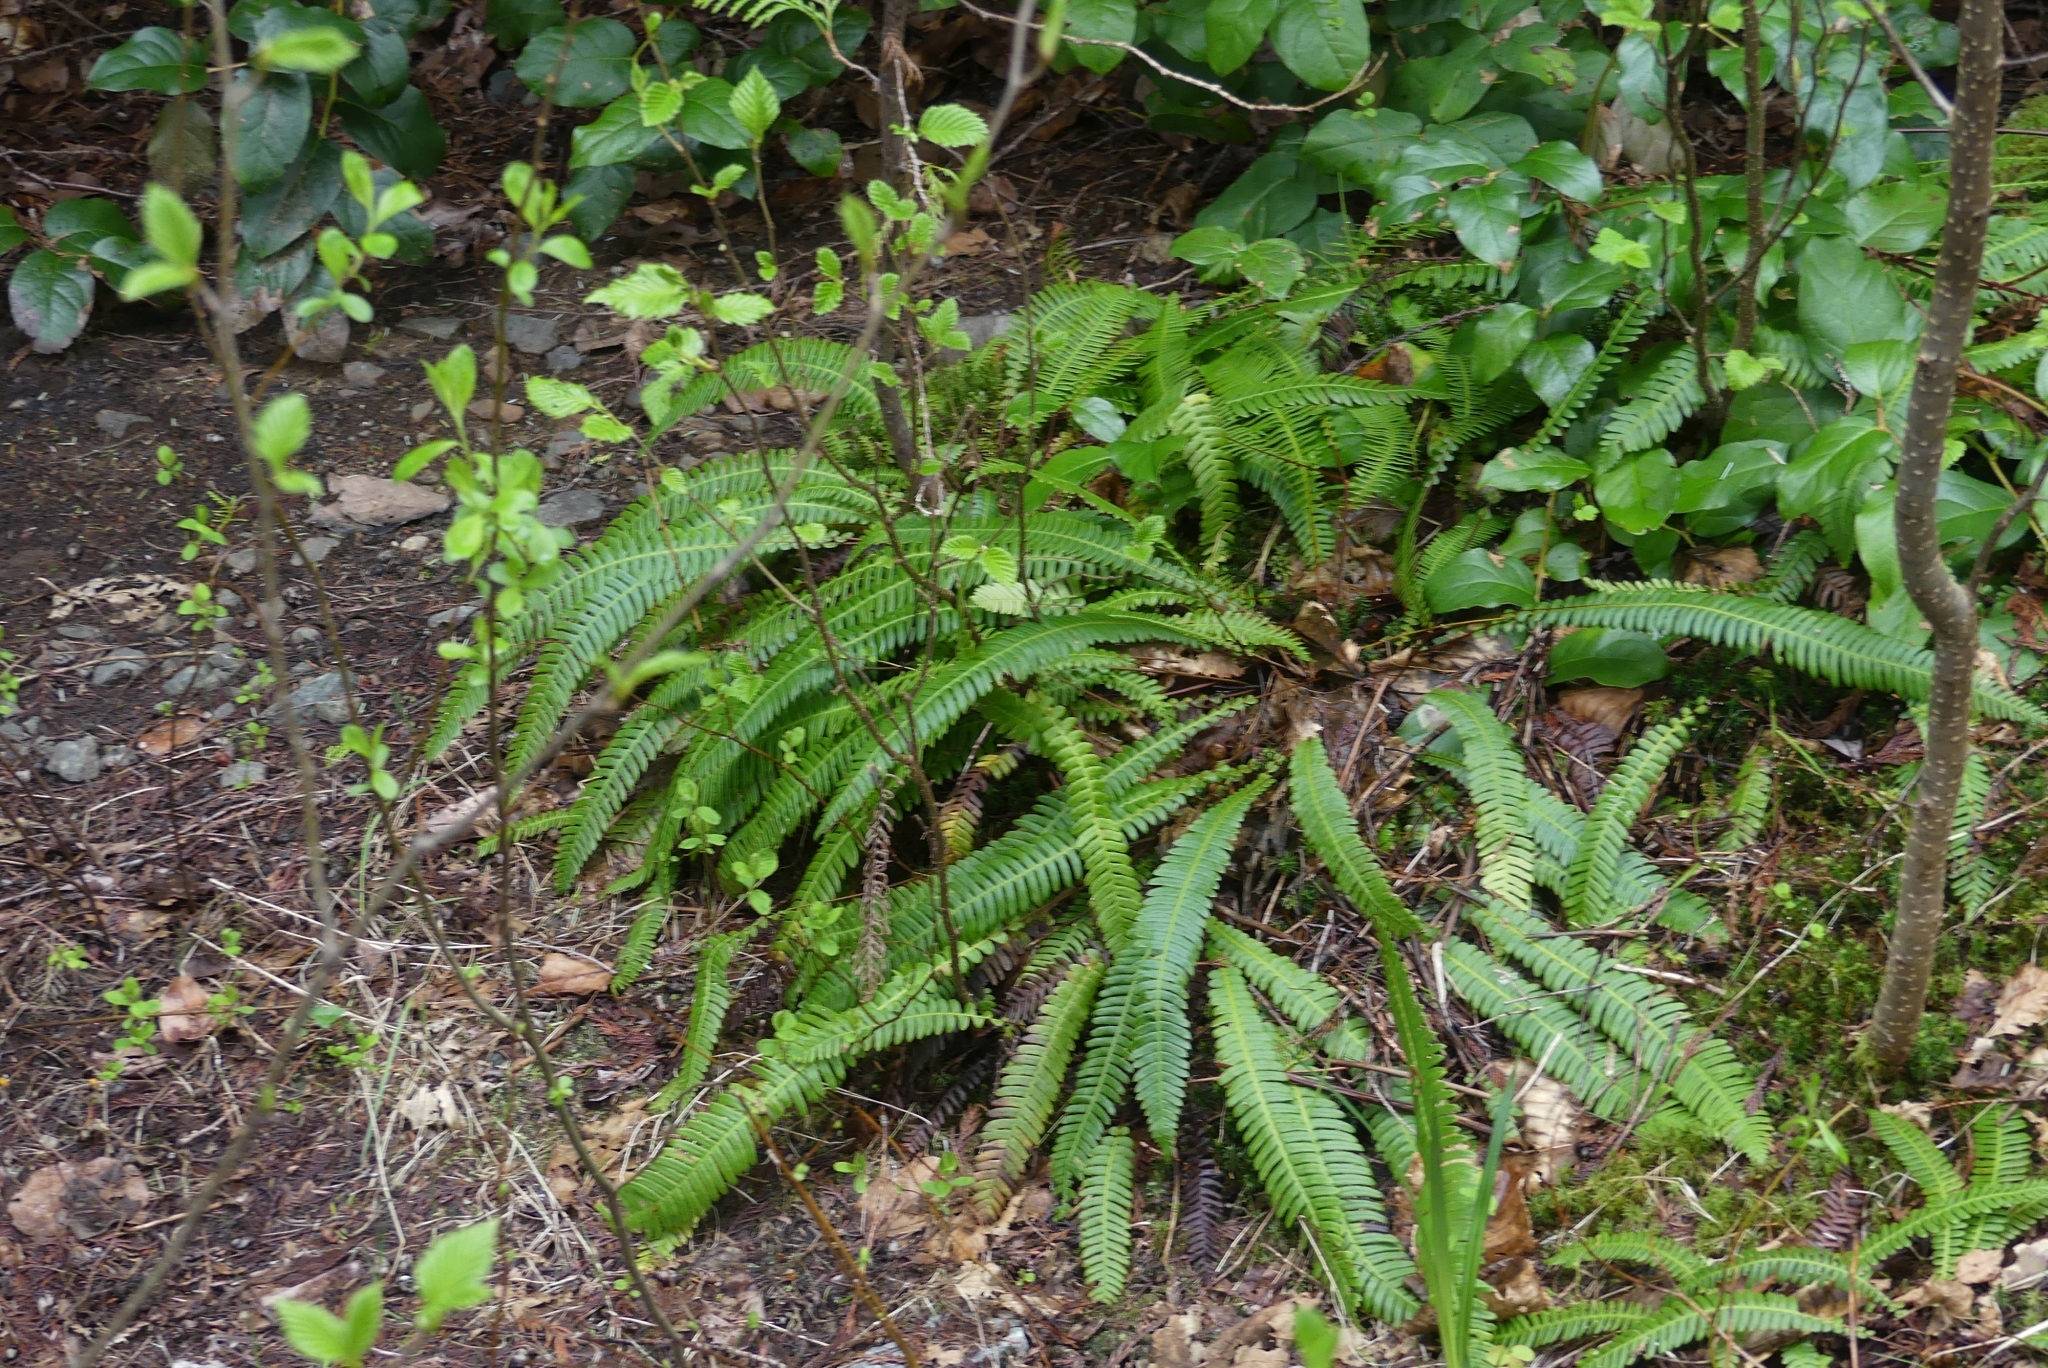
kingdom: Plantae
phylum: Tracheophyta
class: Polypodiopsida
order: Polypodiales
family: Blechnaceae
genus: Struthiopteris
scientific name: Struthiopteris spicant
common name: Deer fern
